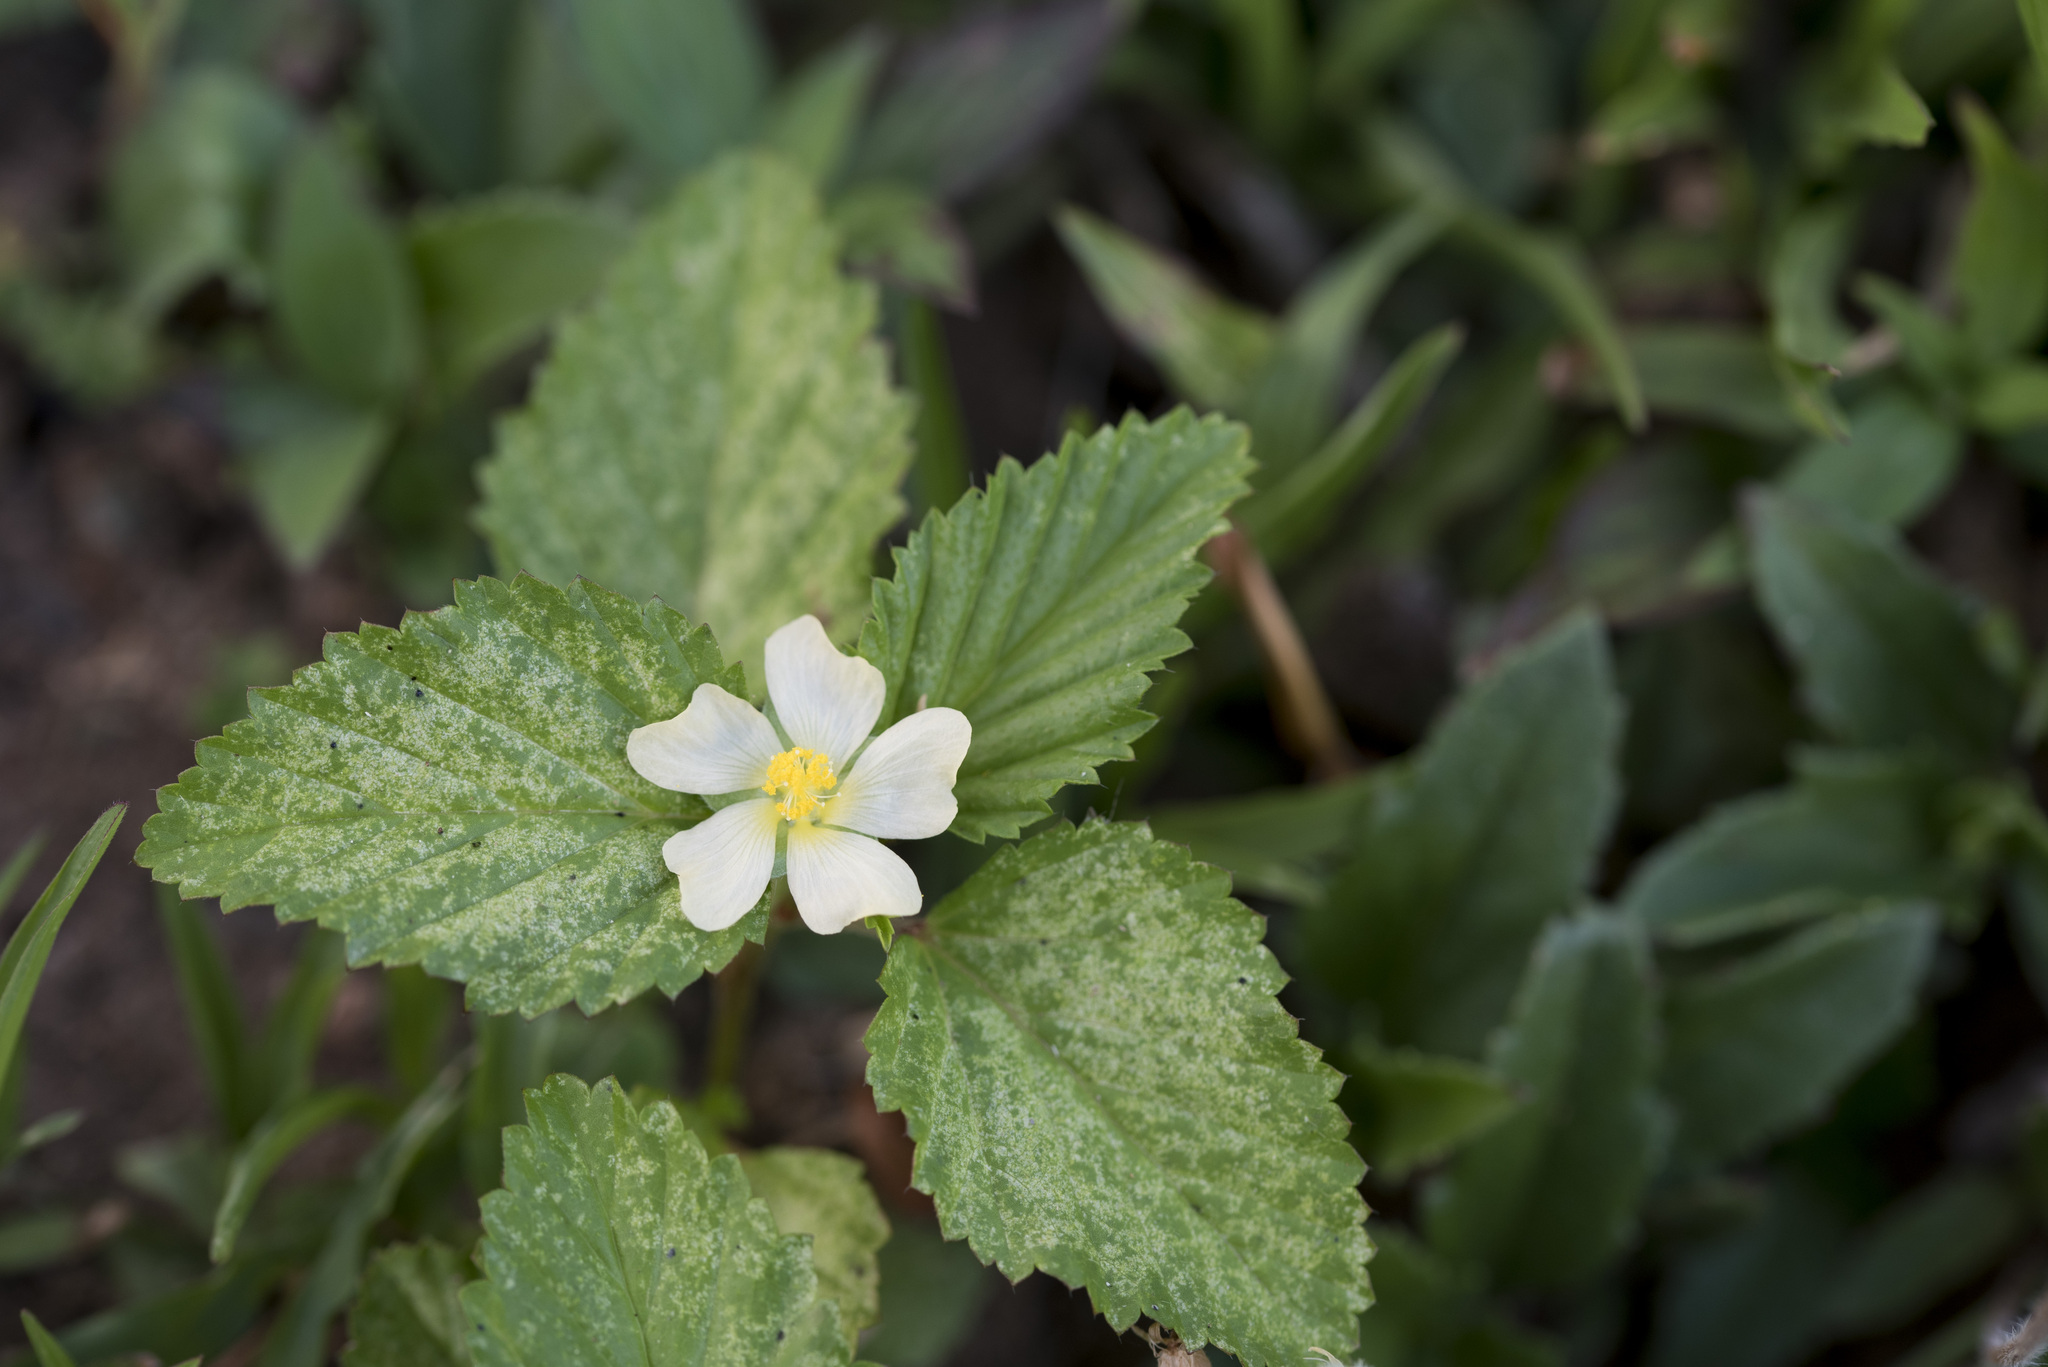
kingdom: Plantae
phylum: Tracheophyta
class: Magnoliopsida
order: Malvales
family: Malvaceae
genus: Malvastrum
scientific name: Malvastrum coromandelianum
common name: Threelobe false mallow
